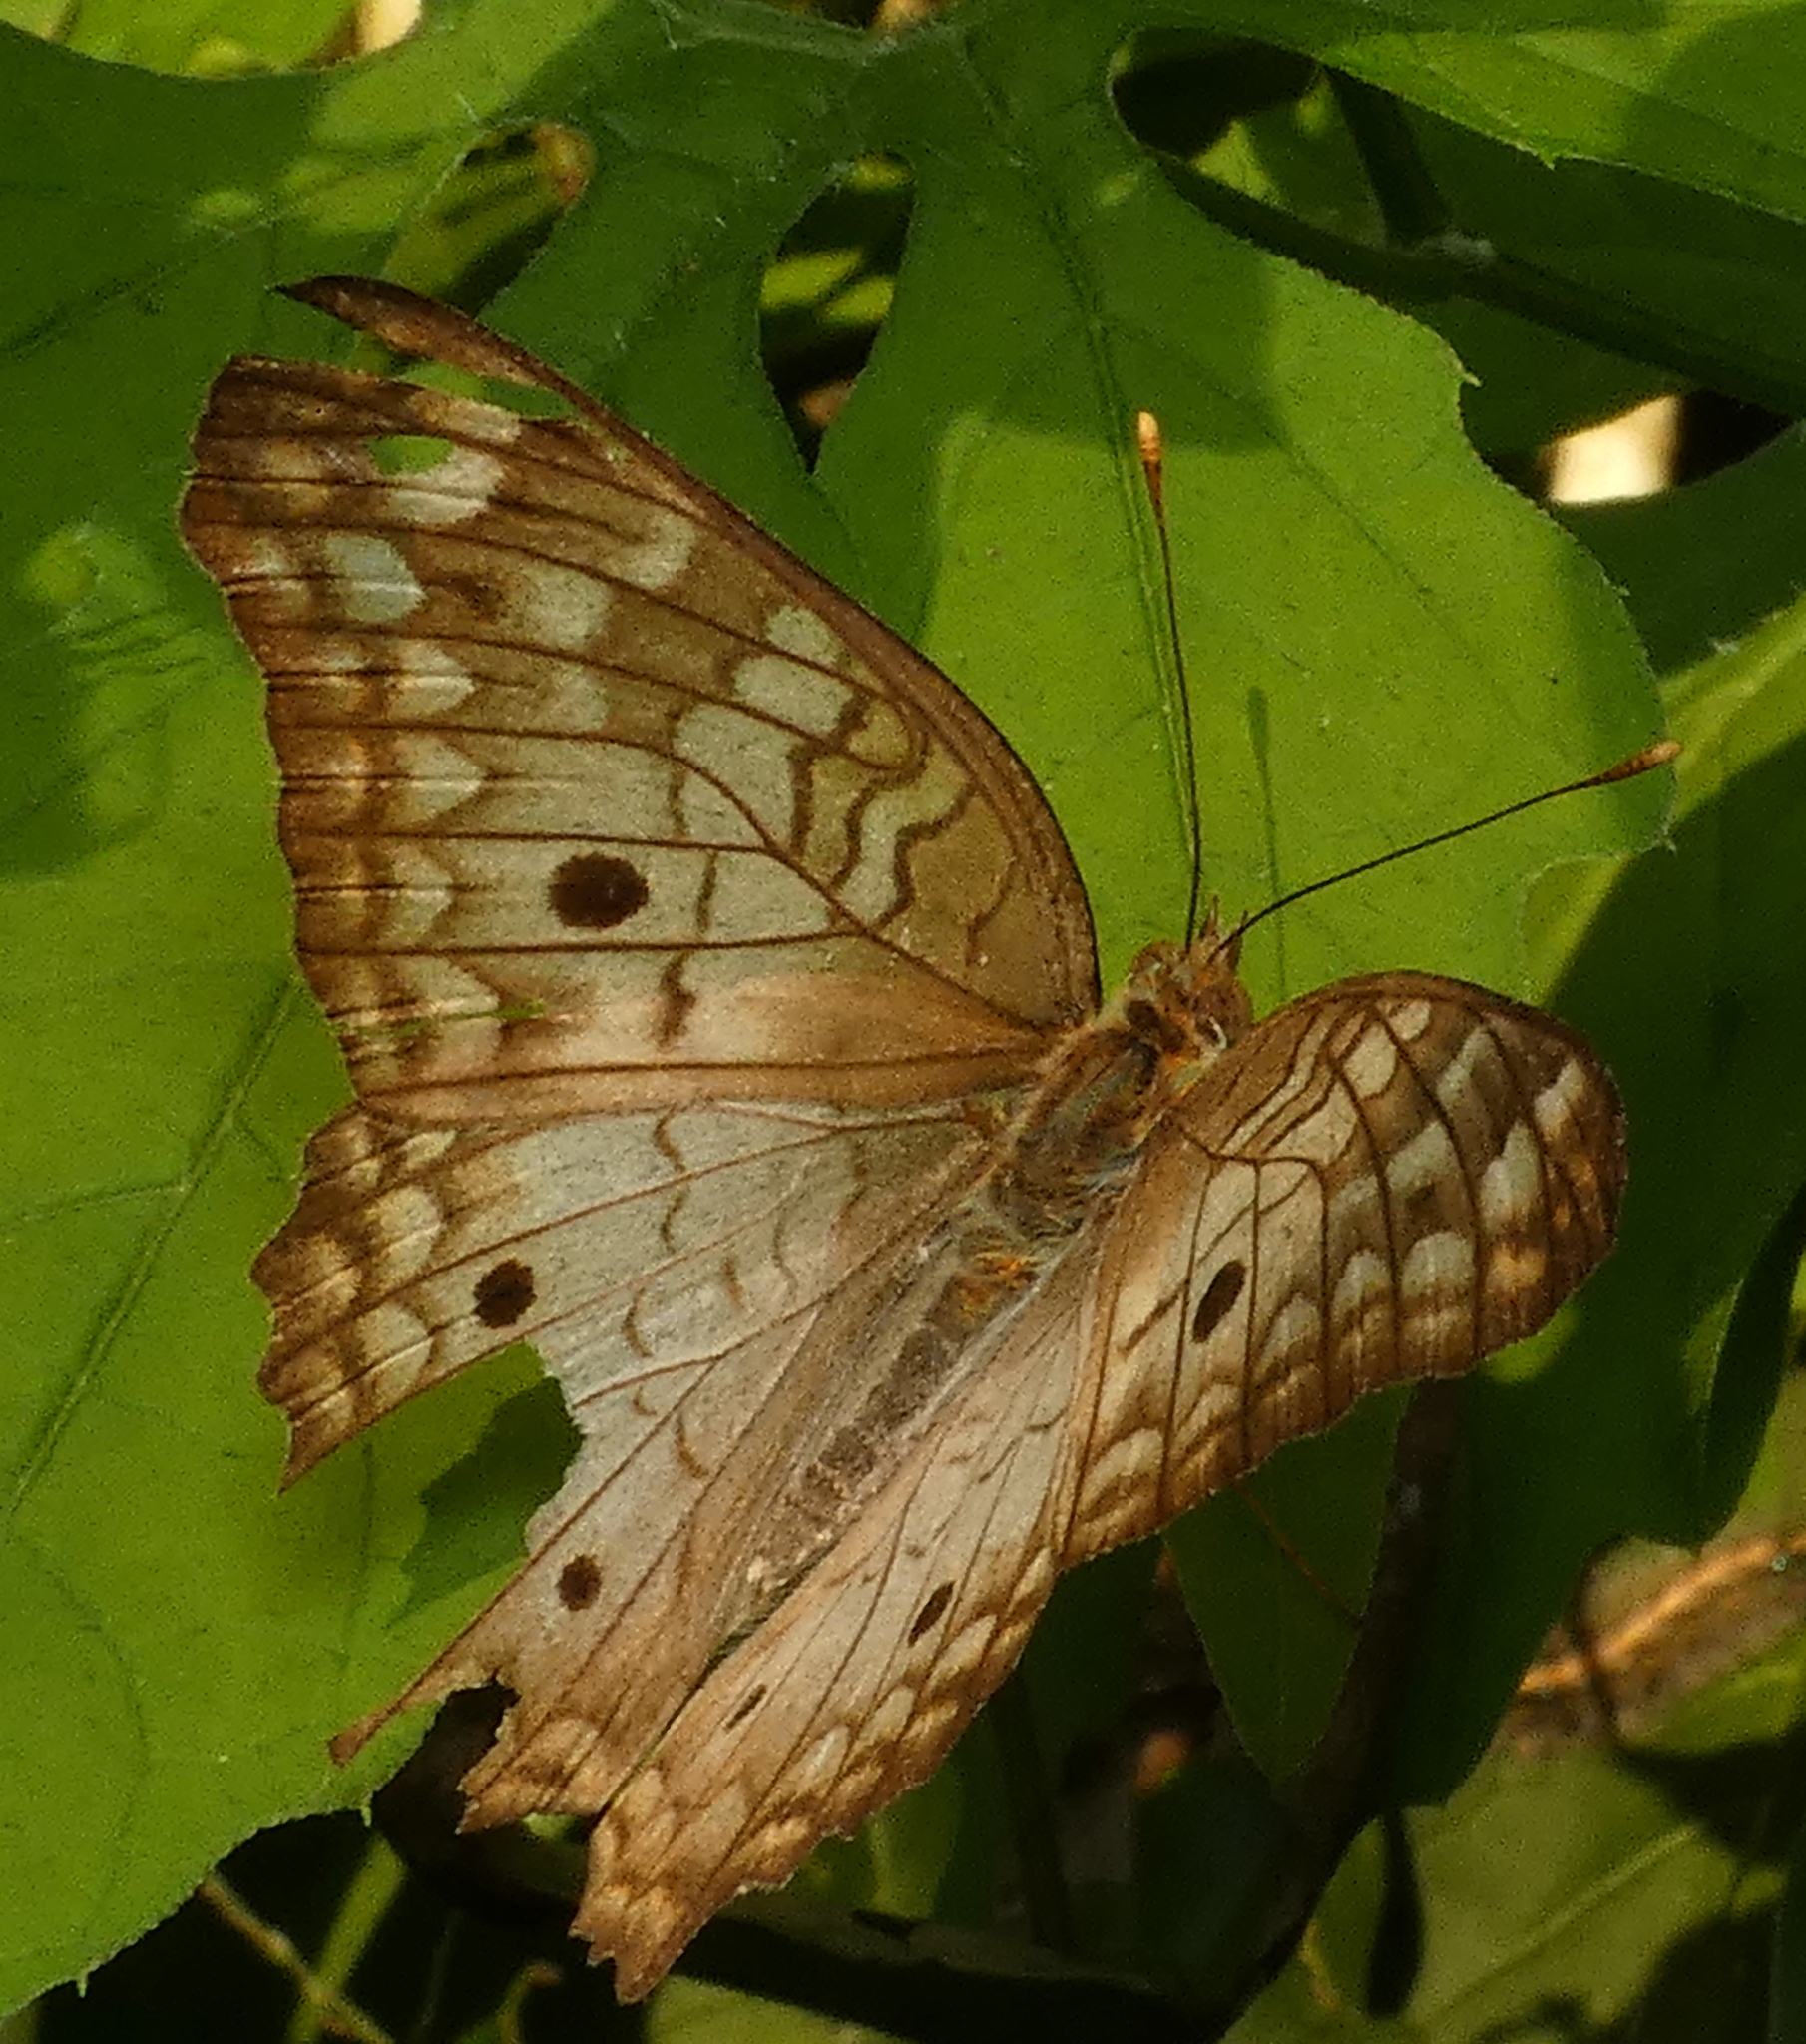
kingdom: Animalia
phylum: Arthropoda
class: Insecta
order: Lepidoptera
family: Nymphalidae
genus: Anartia
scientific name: Anartia jatrophae
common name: White peacock
